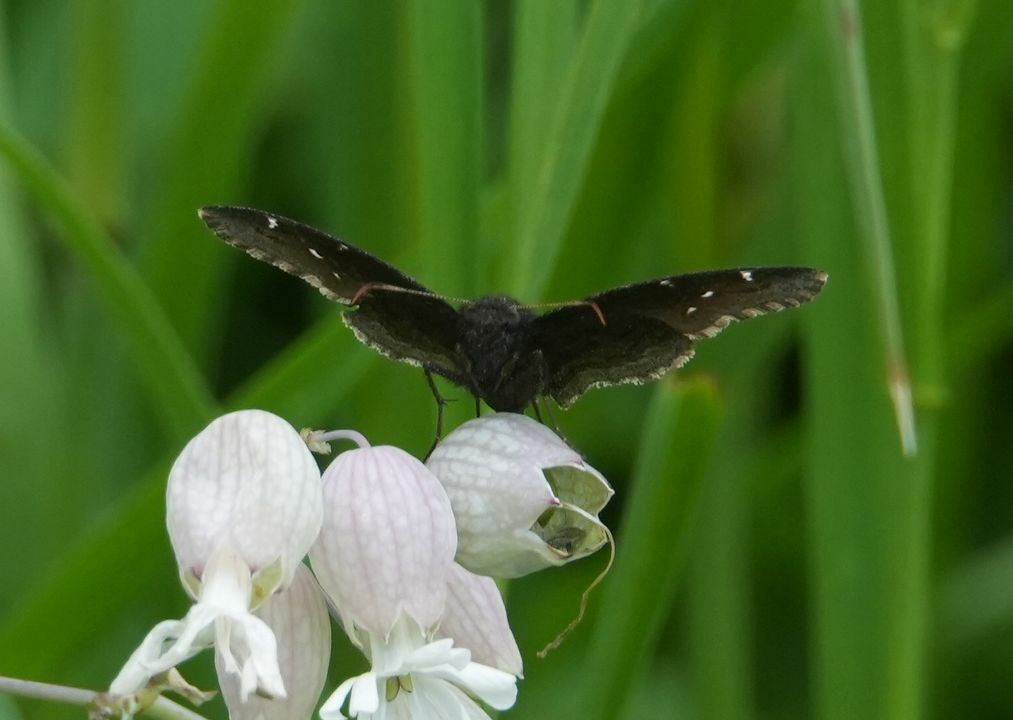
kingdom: Animalia
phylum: Arthropoda
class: Insecta
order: Lepidoptera
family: Hesperiidae
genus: Thorybes
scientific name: Thorybes pylades
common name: Northern cloudywing
